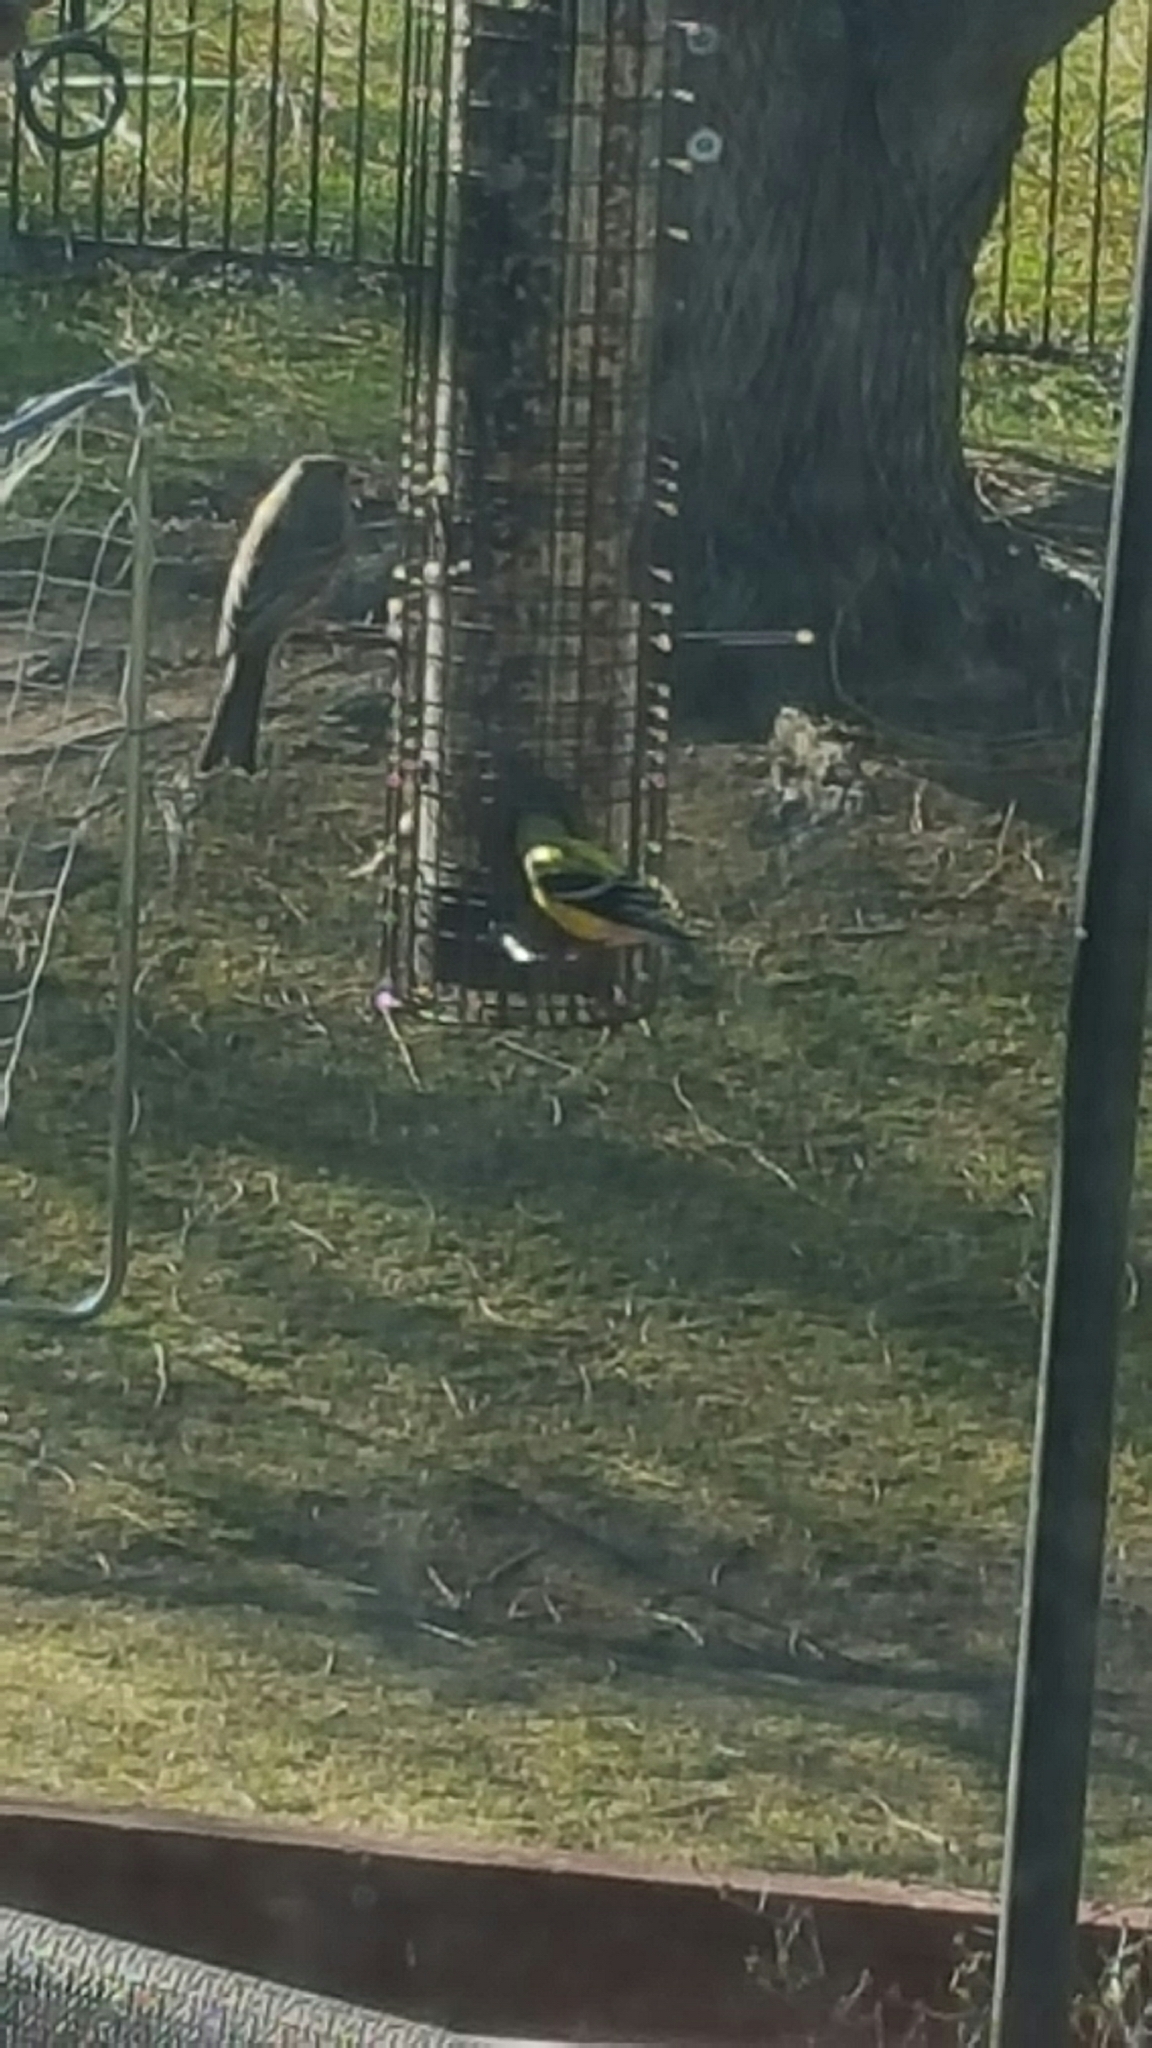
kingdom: Animalia
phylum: Chordata
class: Aves
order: Passeriformes
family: Fringillidae
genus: Spinus
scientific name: Spinus tristis
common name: American goldfinch
